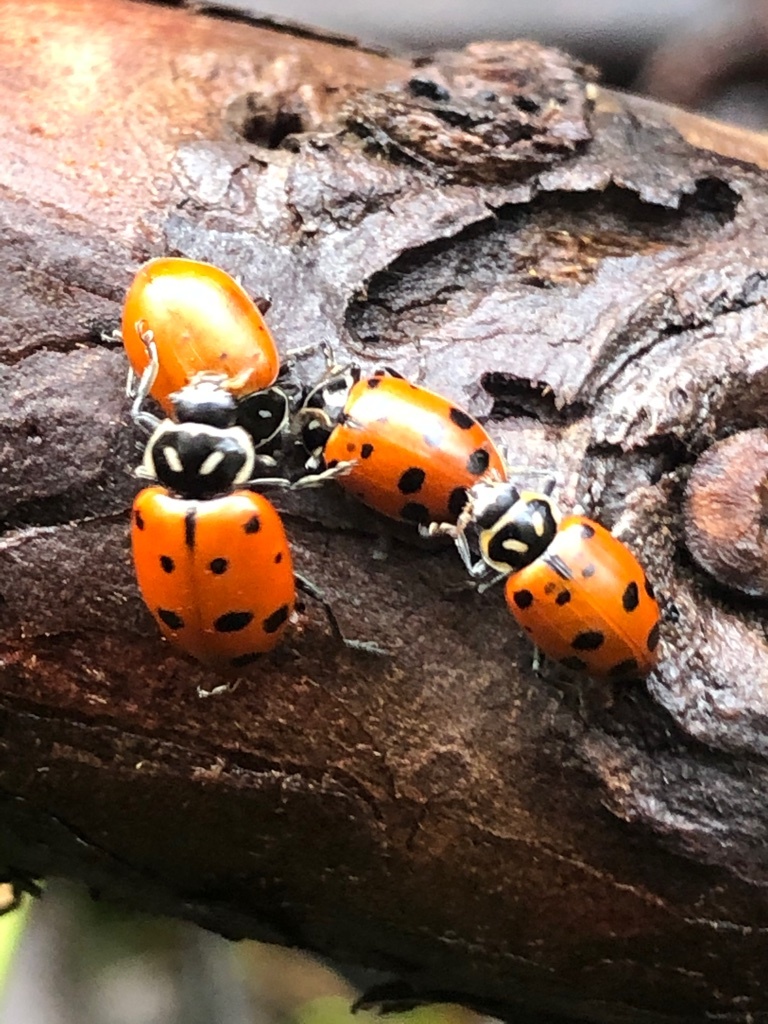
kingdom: Animalia
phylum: Arthropoda
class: Insecta
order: Coleoptera
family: Coccinellidae
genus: Hippodamia
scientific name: Hippodamia convergens
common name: Convergent lady beetle
